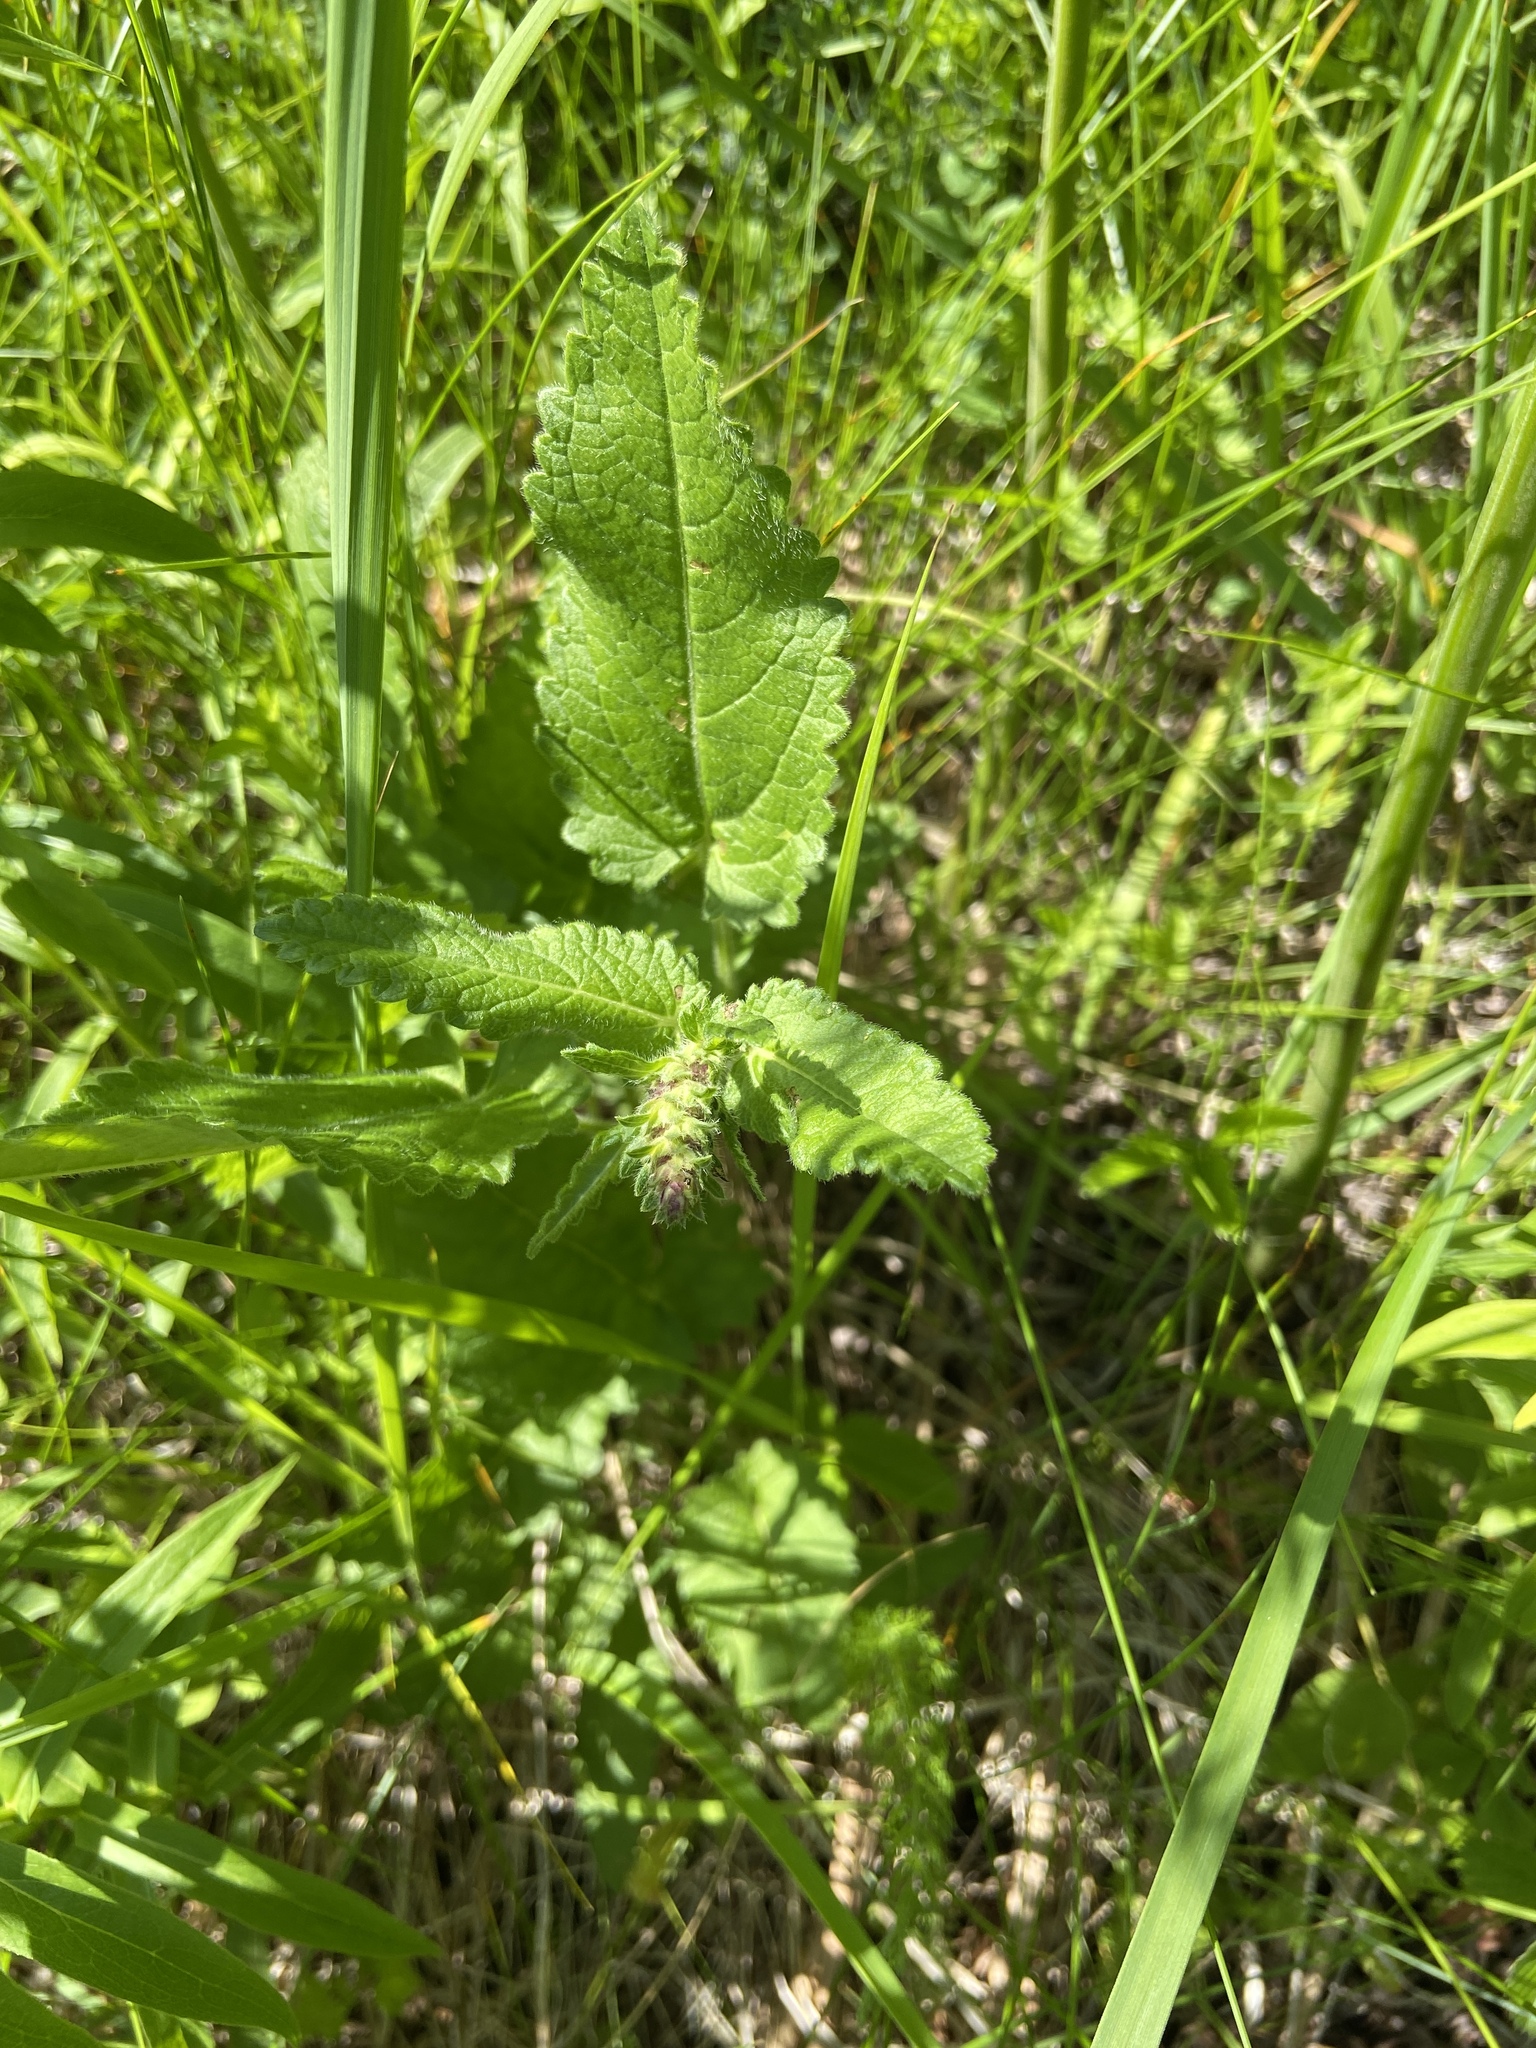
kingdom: Plantae
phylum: Tracheophyta
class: Magnoliopsida
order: Lamiales
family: Lamiaceae
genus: Betonica
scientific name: Betonica officinalis
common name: Bishop's-wort
